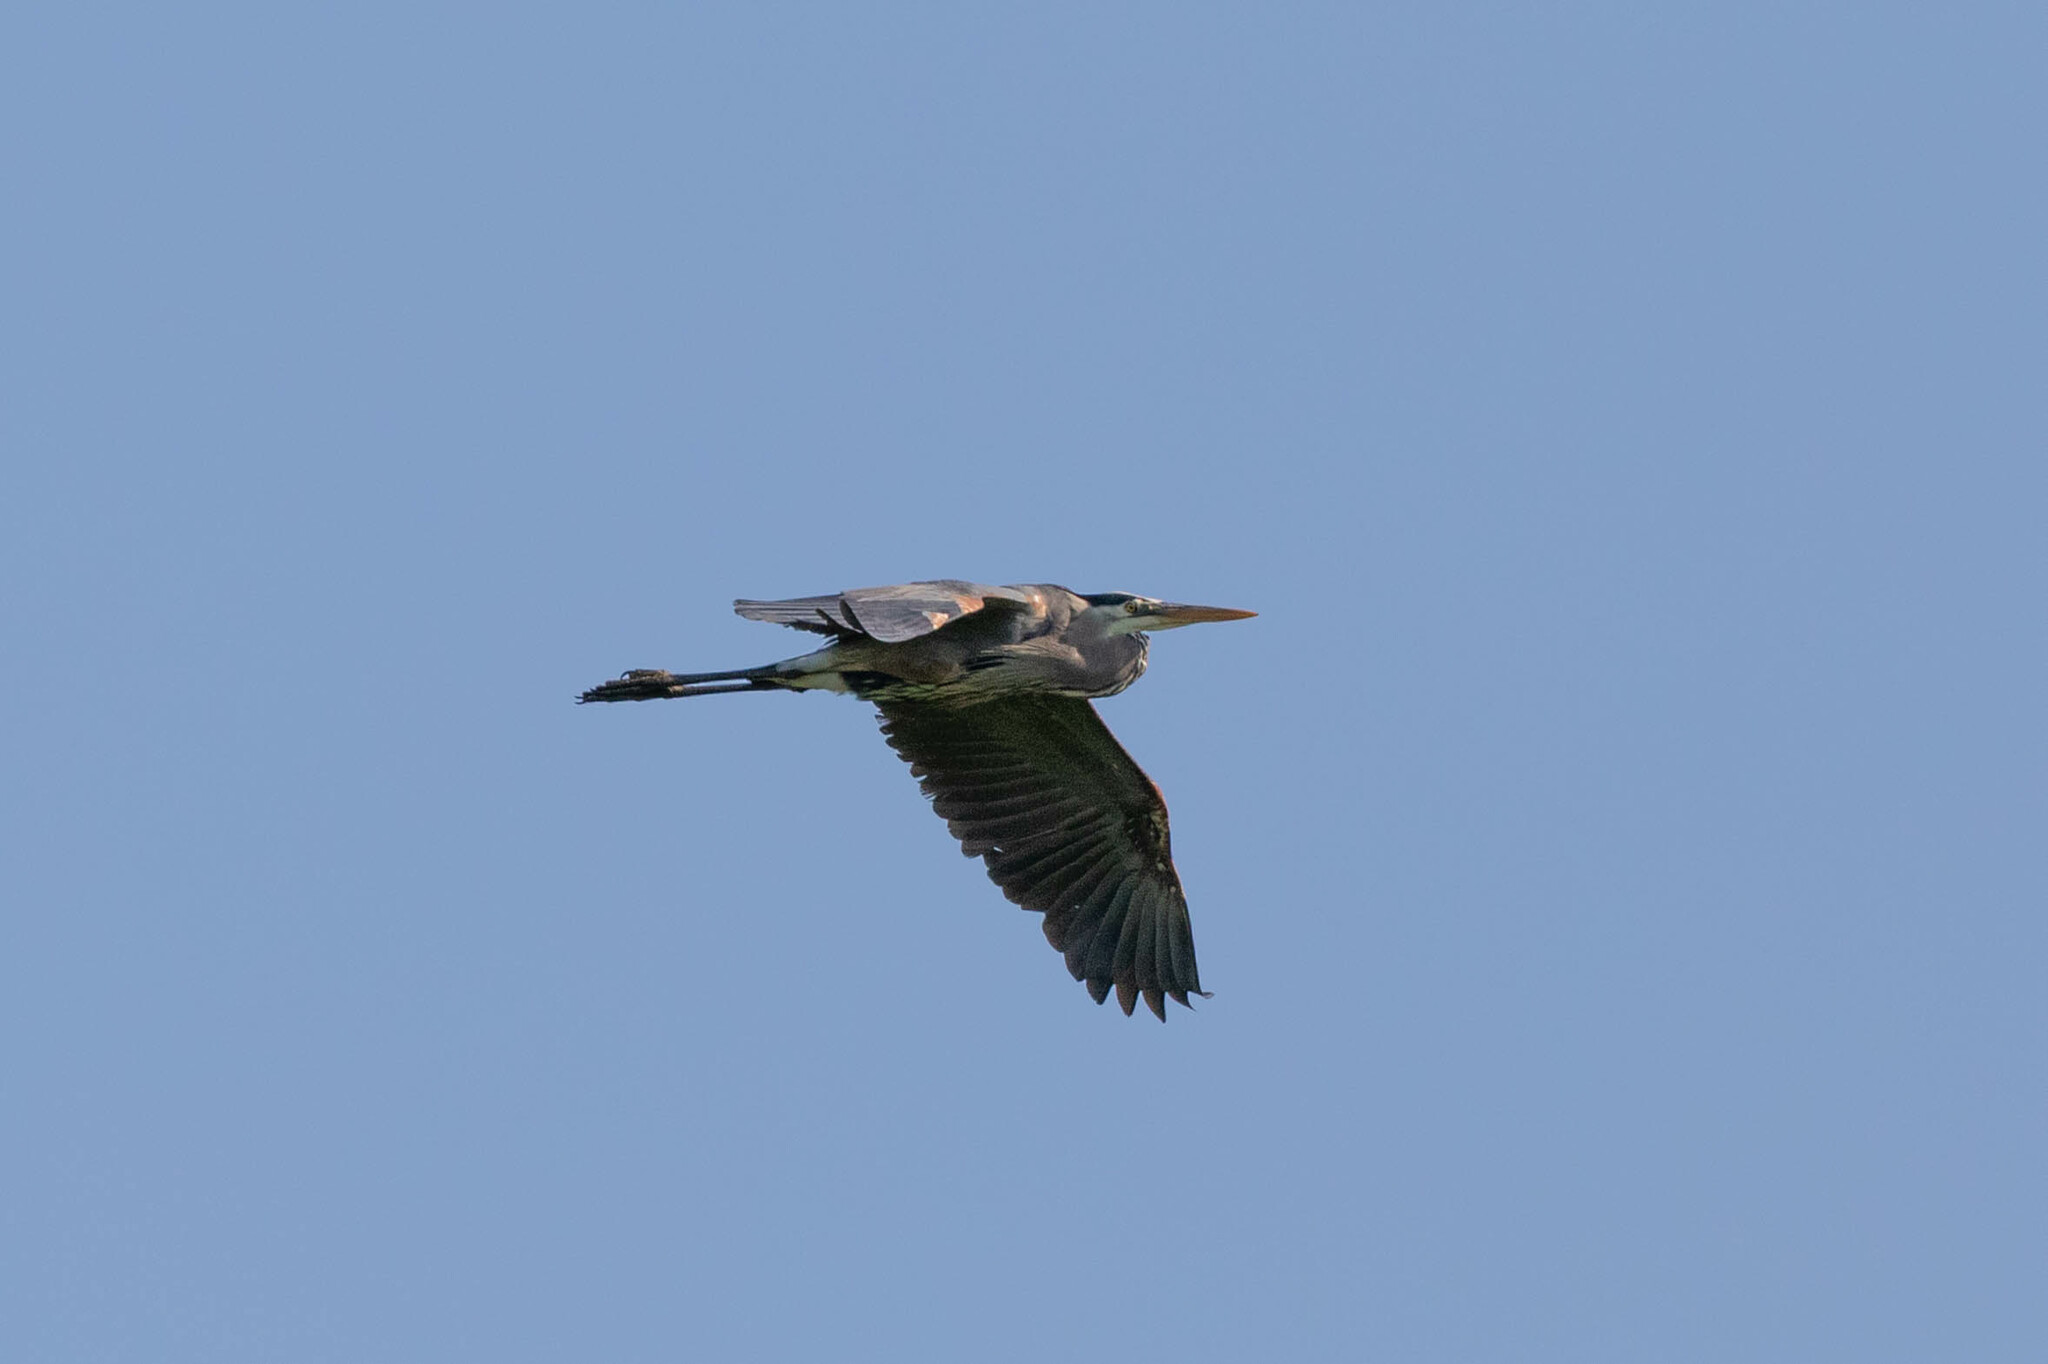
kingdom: Animalia
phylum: Chordata
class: Aves
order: Pelecaniformes
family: Ardeidae
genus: Ardea
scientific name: Ardea herodias
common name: Great blue heron
